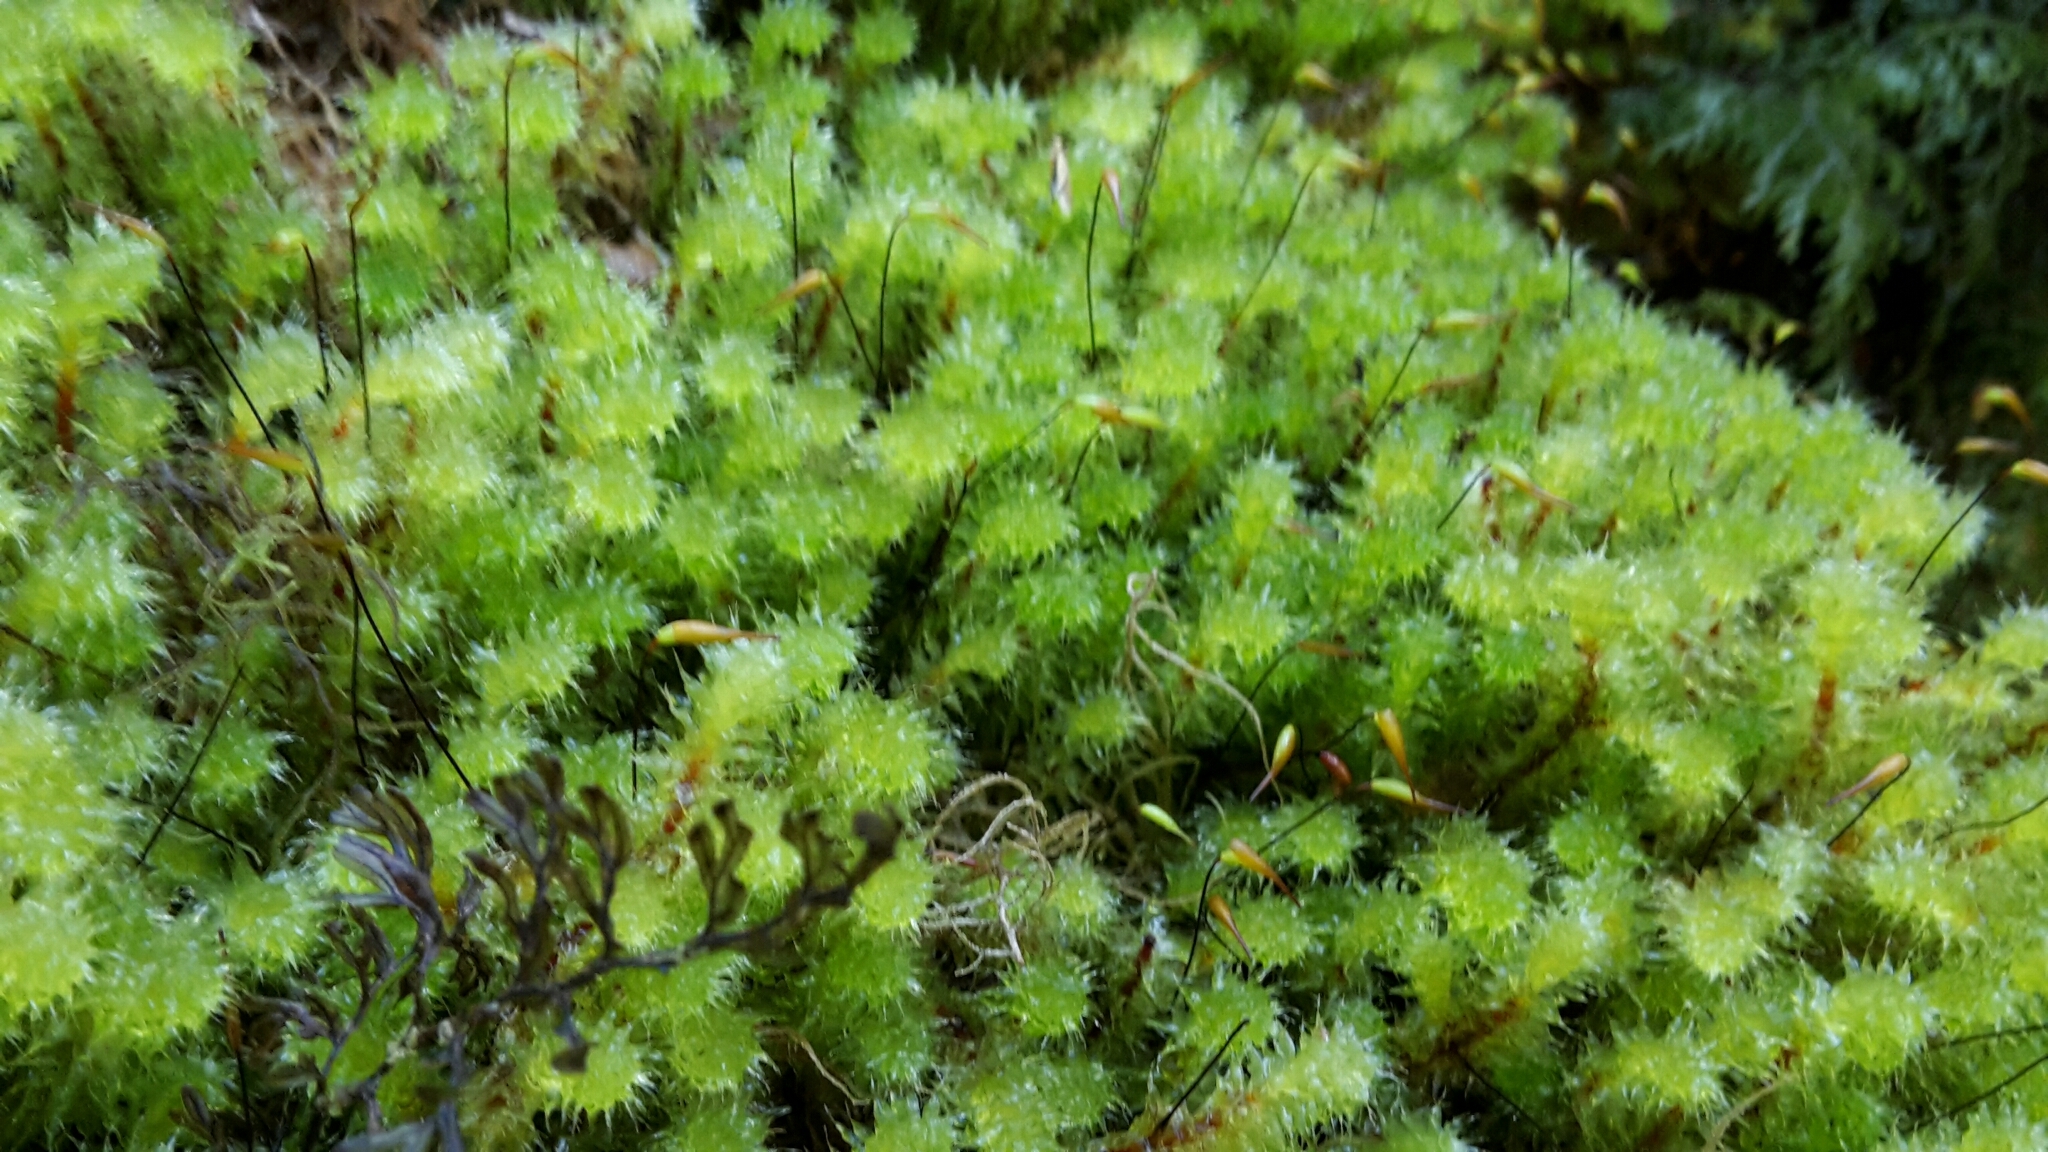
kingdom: Plantae
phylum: Bryophyta
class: Bryopsida
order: Ptychomniales
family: Ptychomniaceae
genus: Ptychomnion
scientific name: Ptychomnion aciculare
